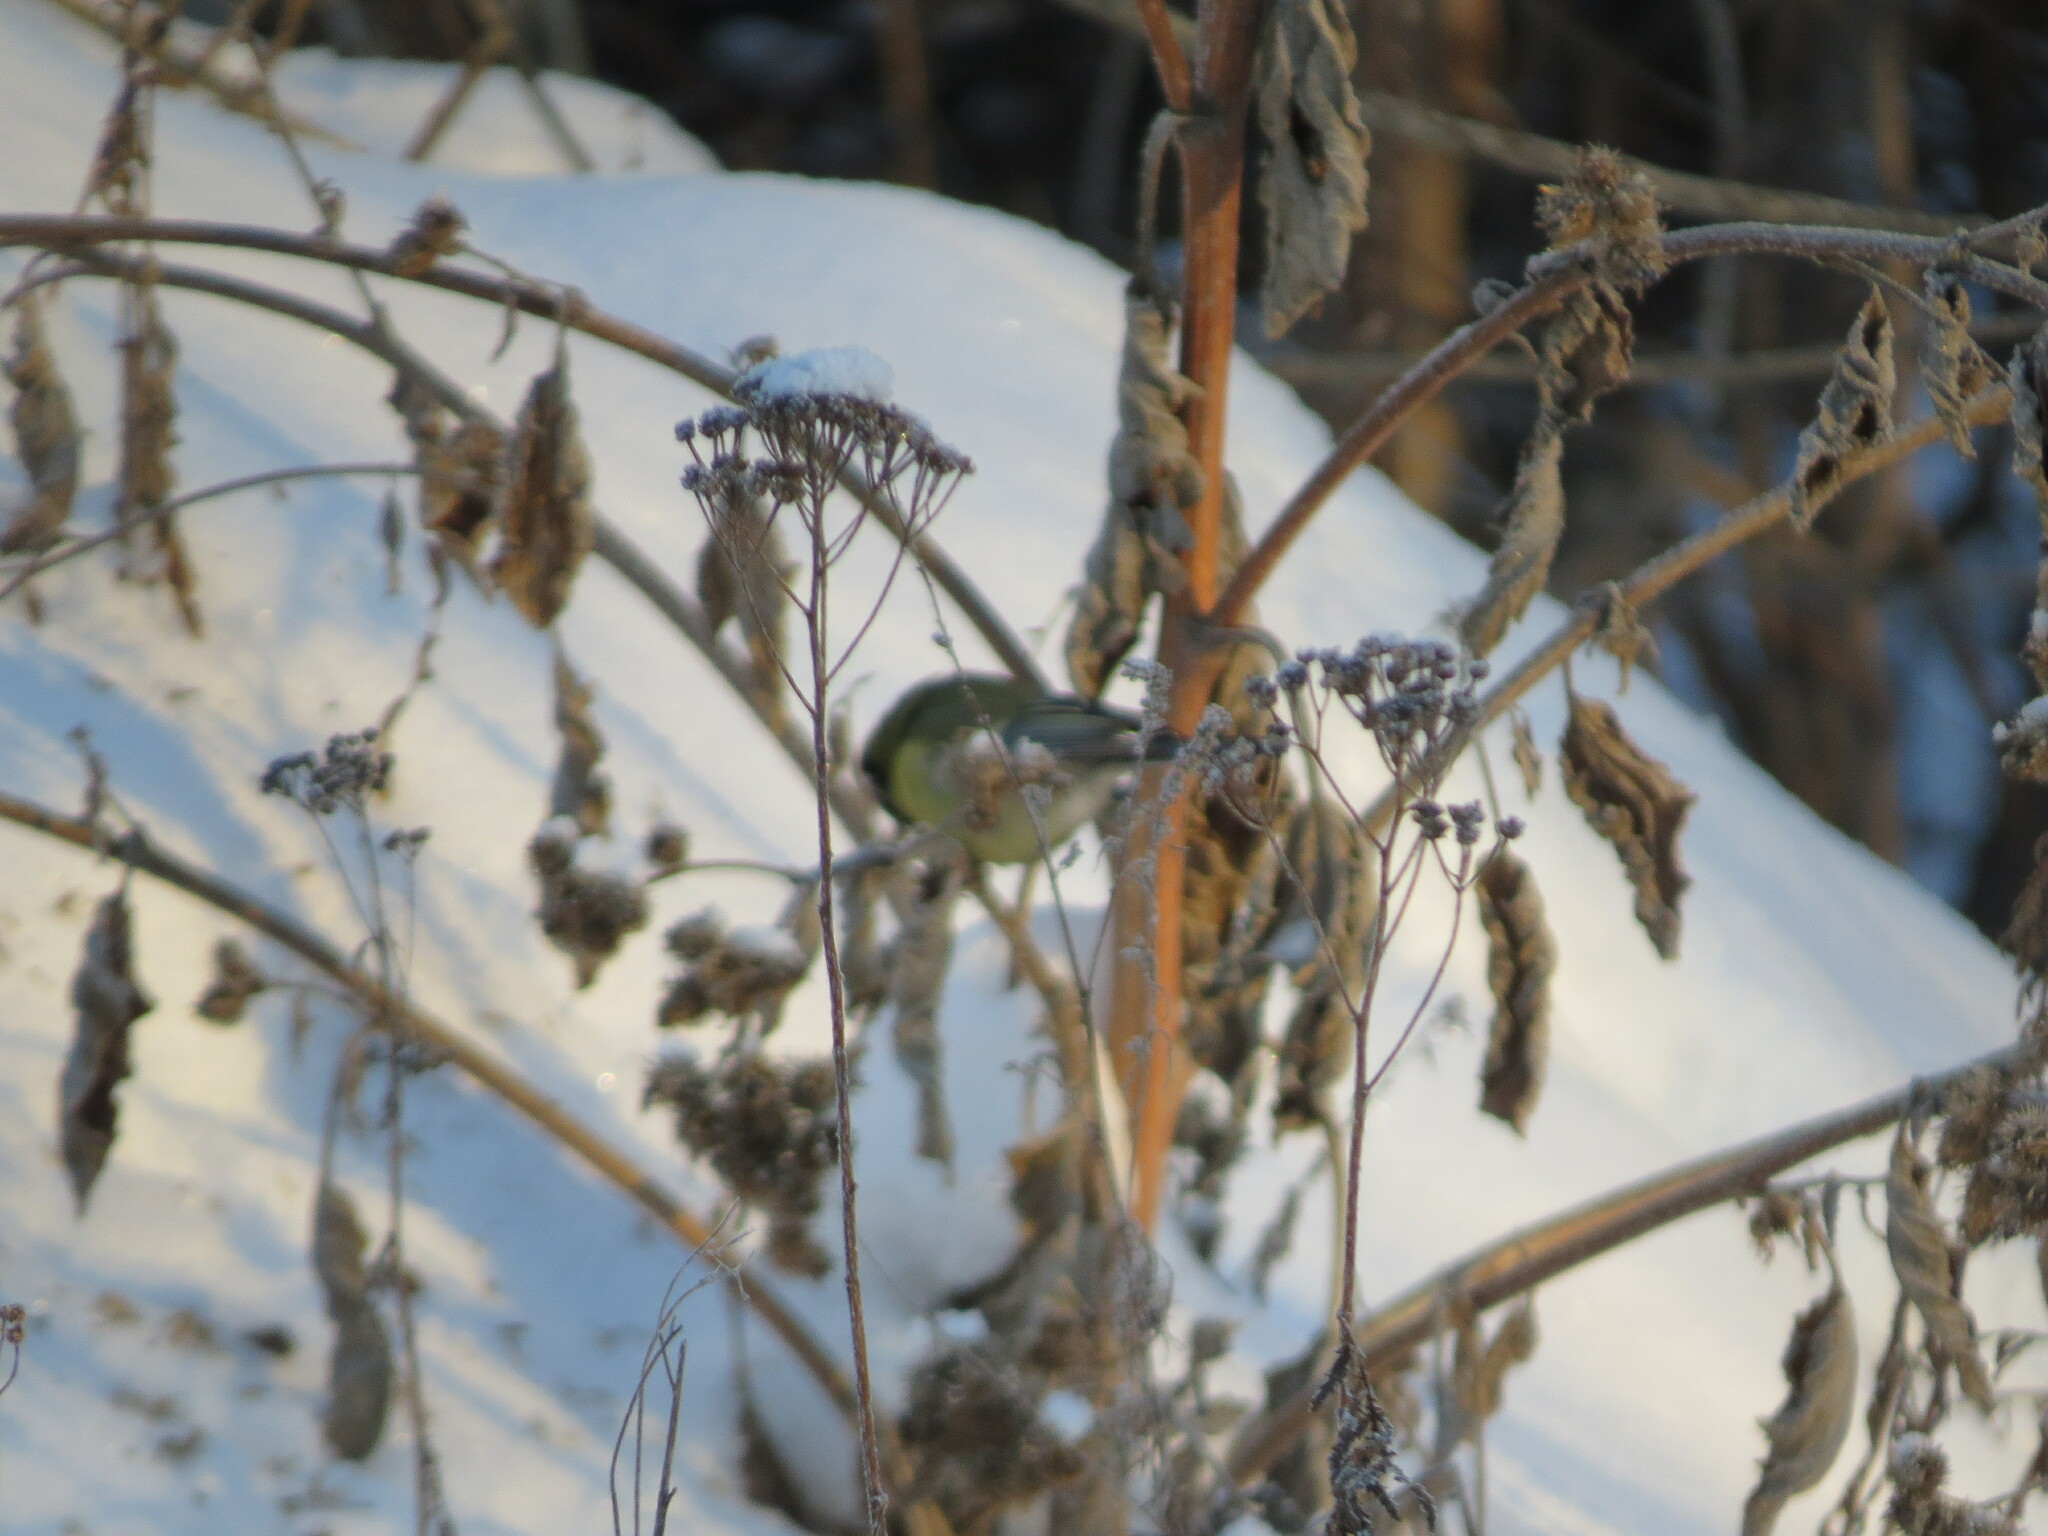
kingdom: Animalia
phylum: Chordata
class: Aves
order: Passeriformes
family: Paridae
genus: Parus
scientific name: Parus major
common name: Great tit
